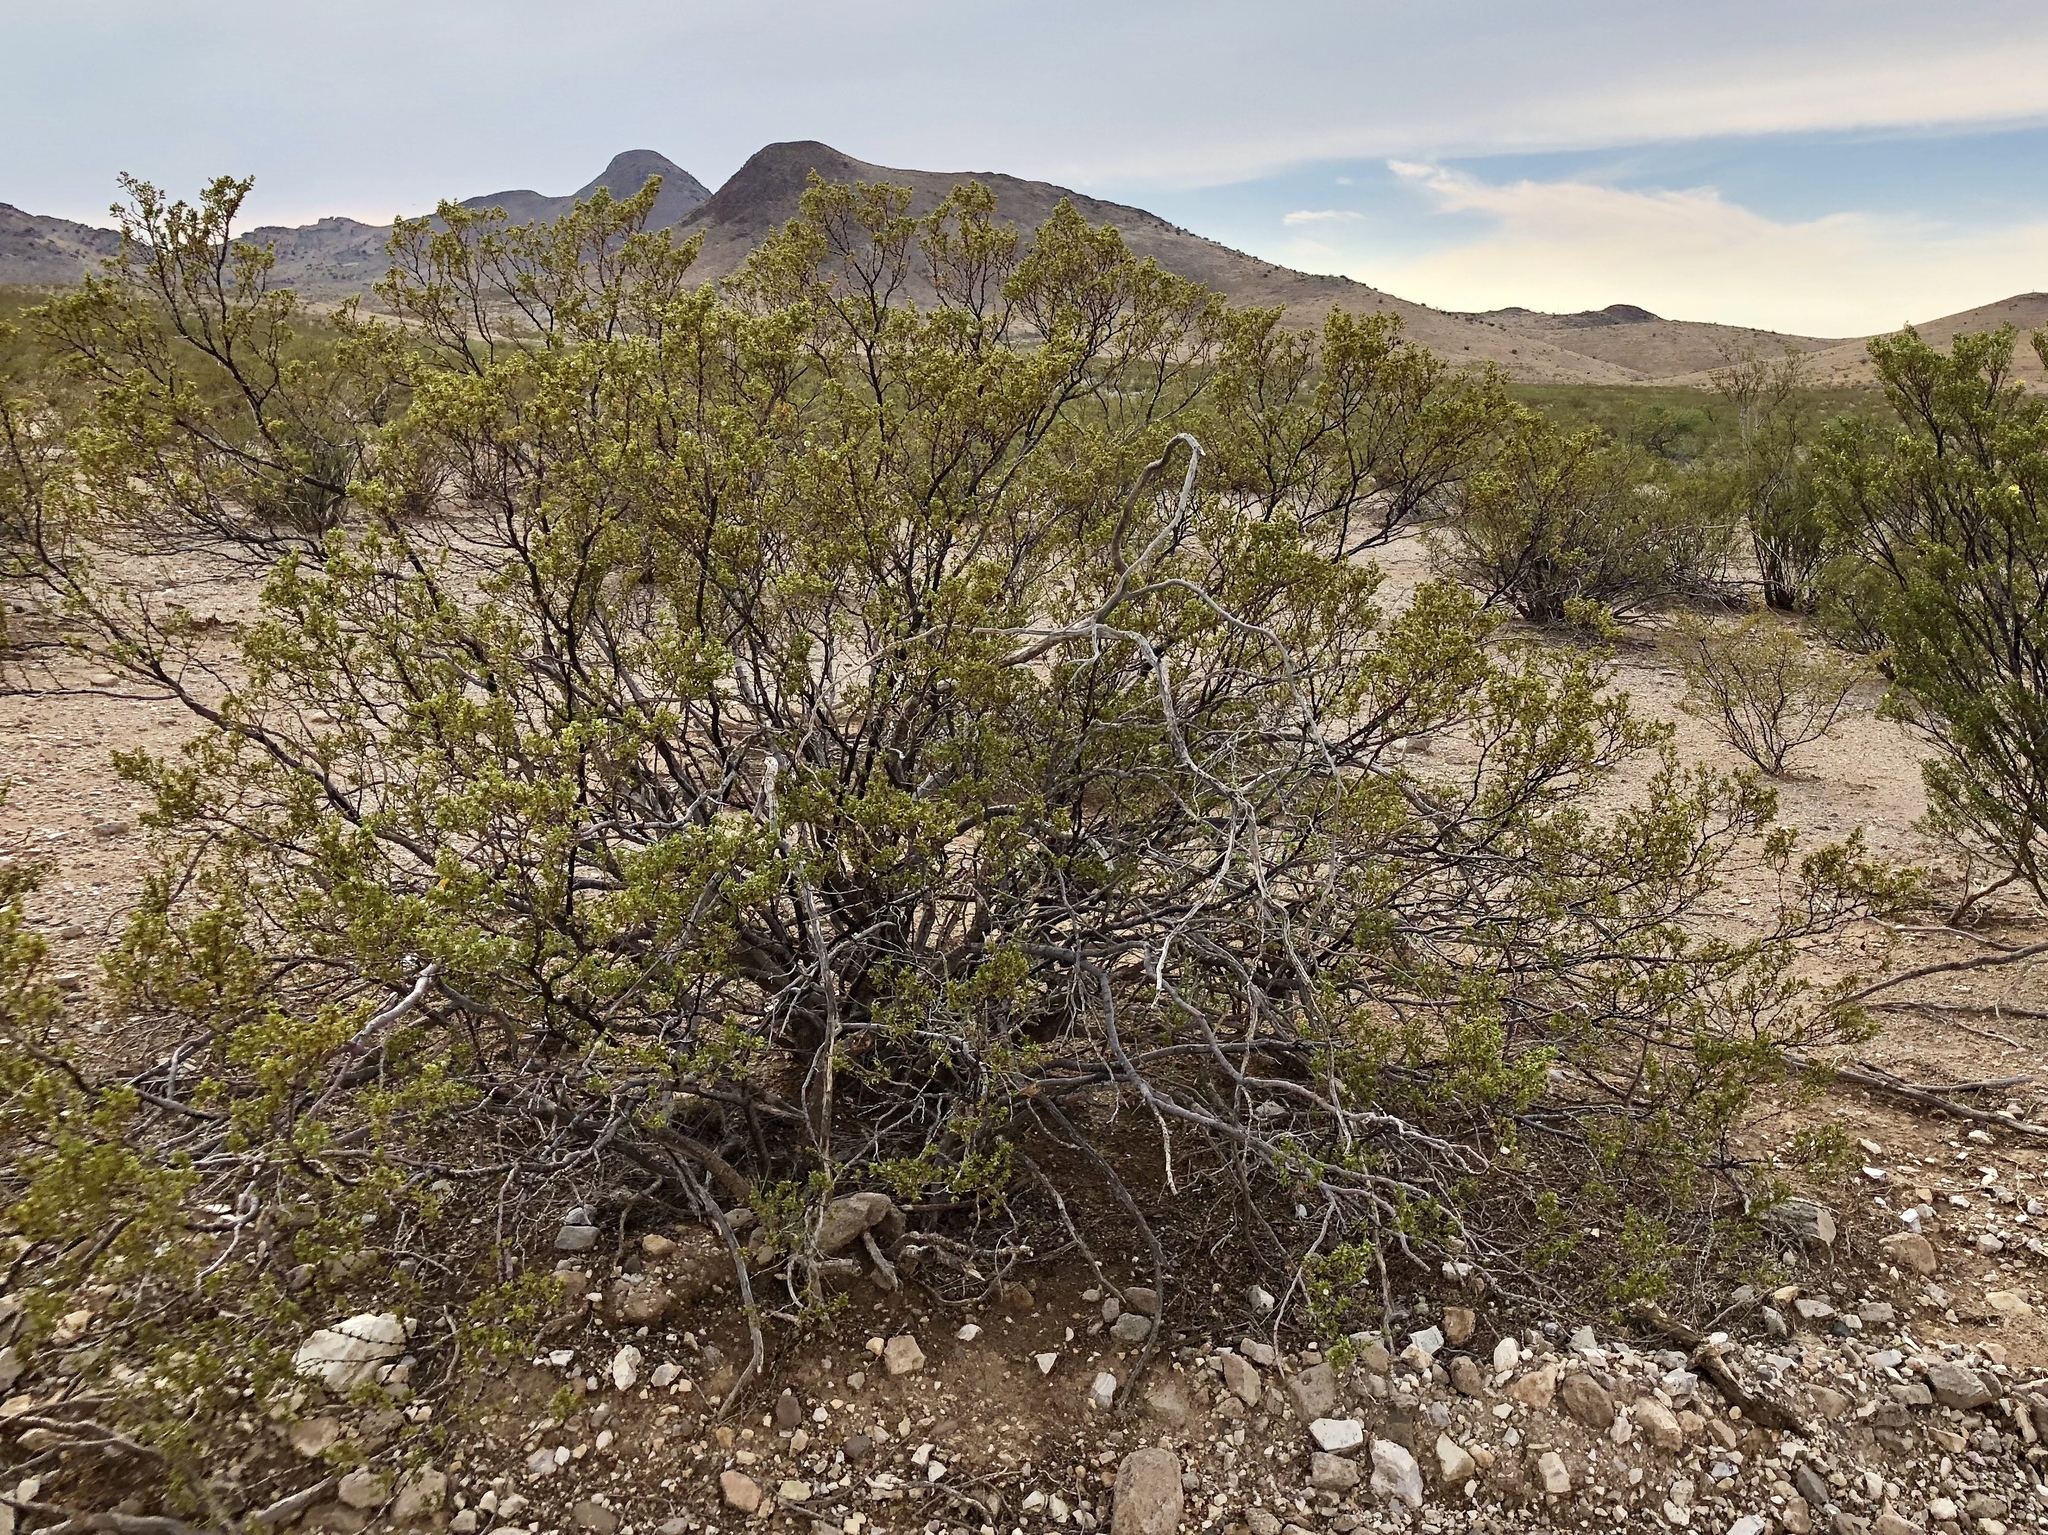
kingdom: Plantae
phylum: Tracheophyta
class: Magnoliopsida
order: Zygophyllales
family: Zygophyllaceae
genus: Larrea
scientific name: Larrea tridentata
